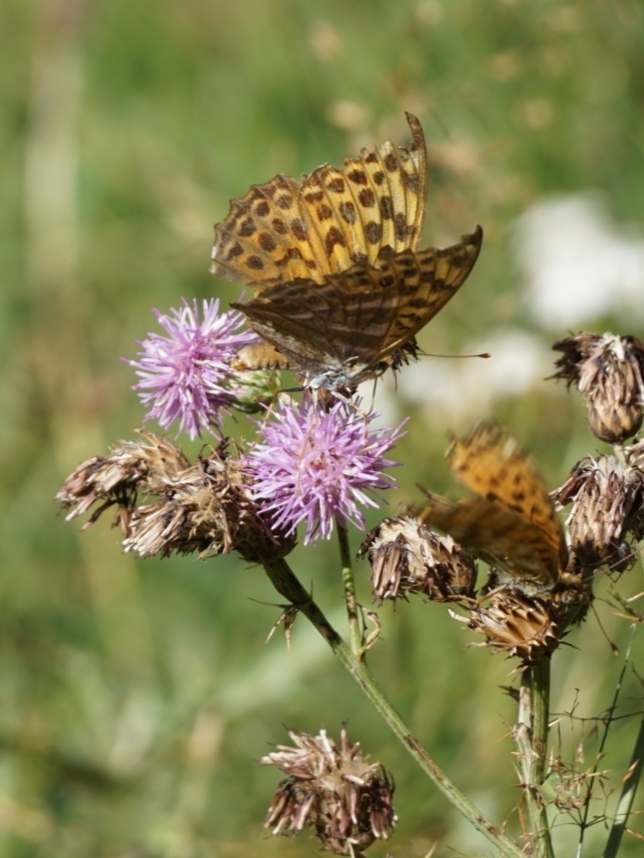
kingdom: Animalia
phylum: Arthropoda
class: Insecta
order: Lepidoptera
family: Nymphalidae
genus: Argynnis
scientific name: Argynnis paphia
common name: Silver-washed fritillary
